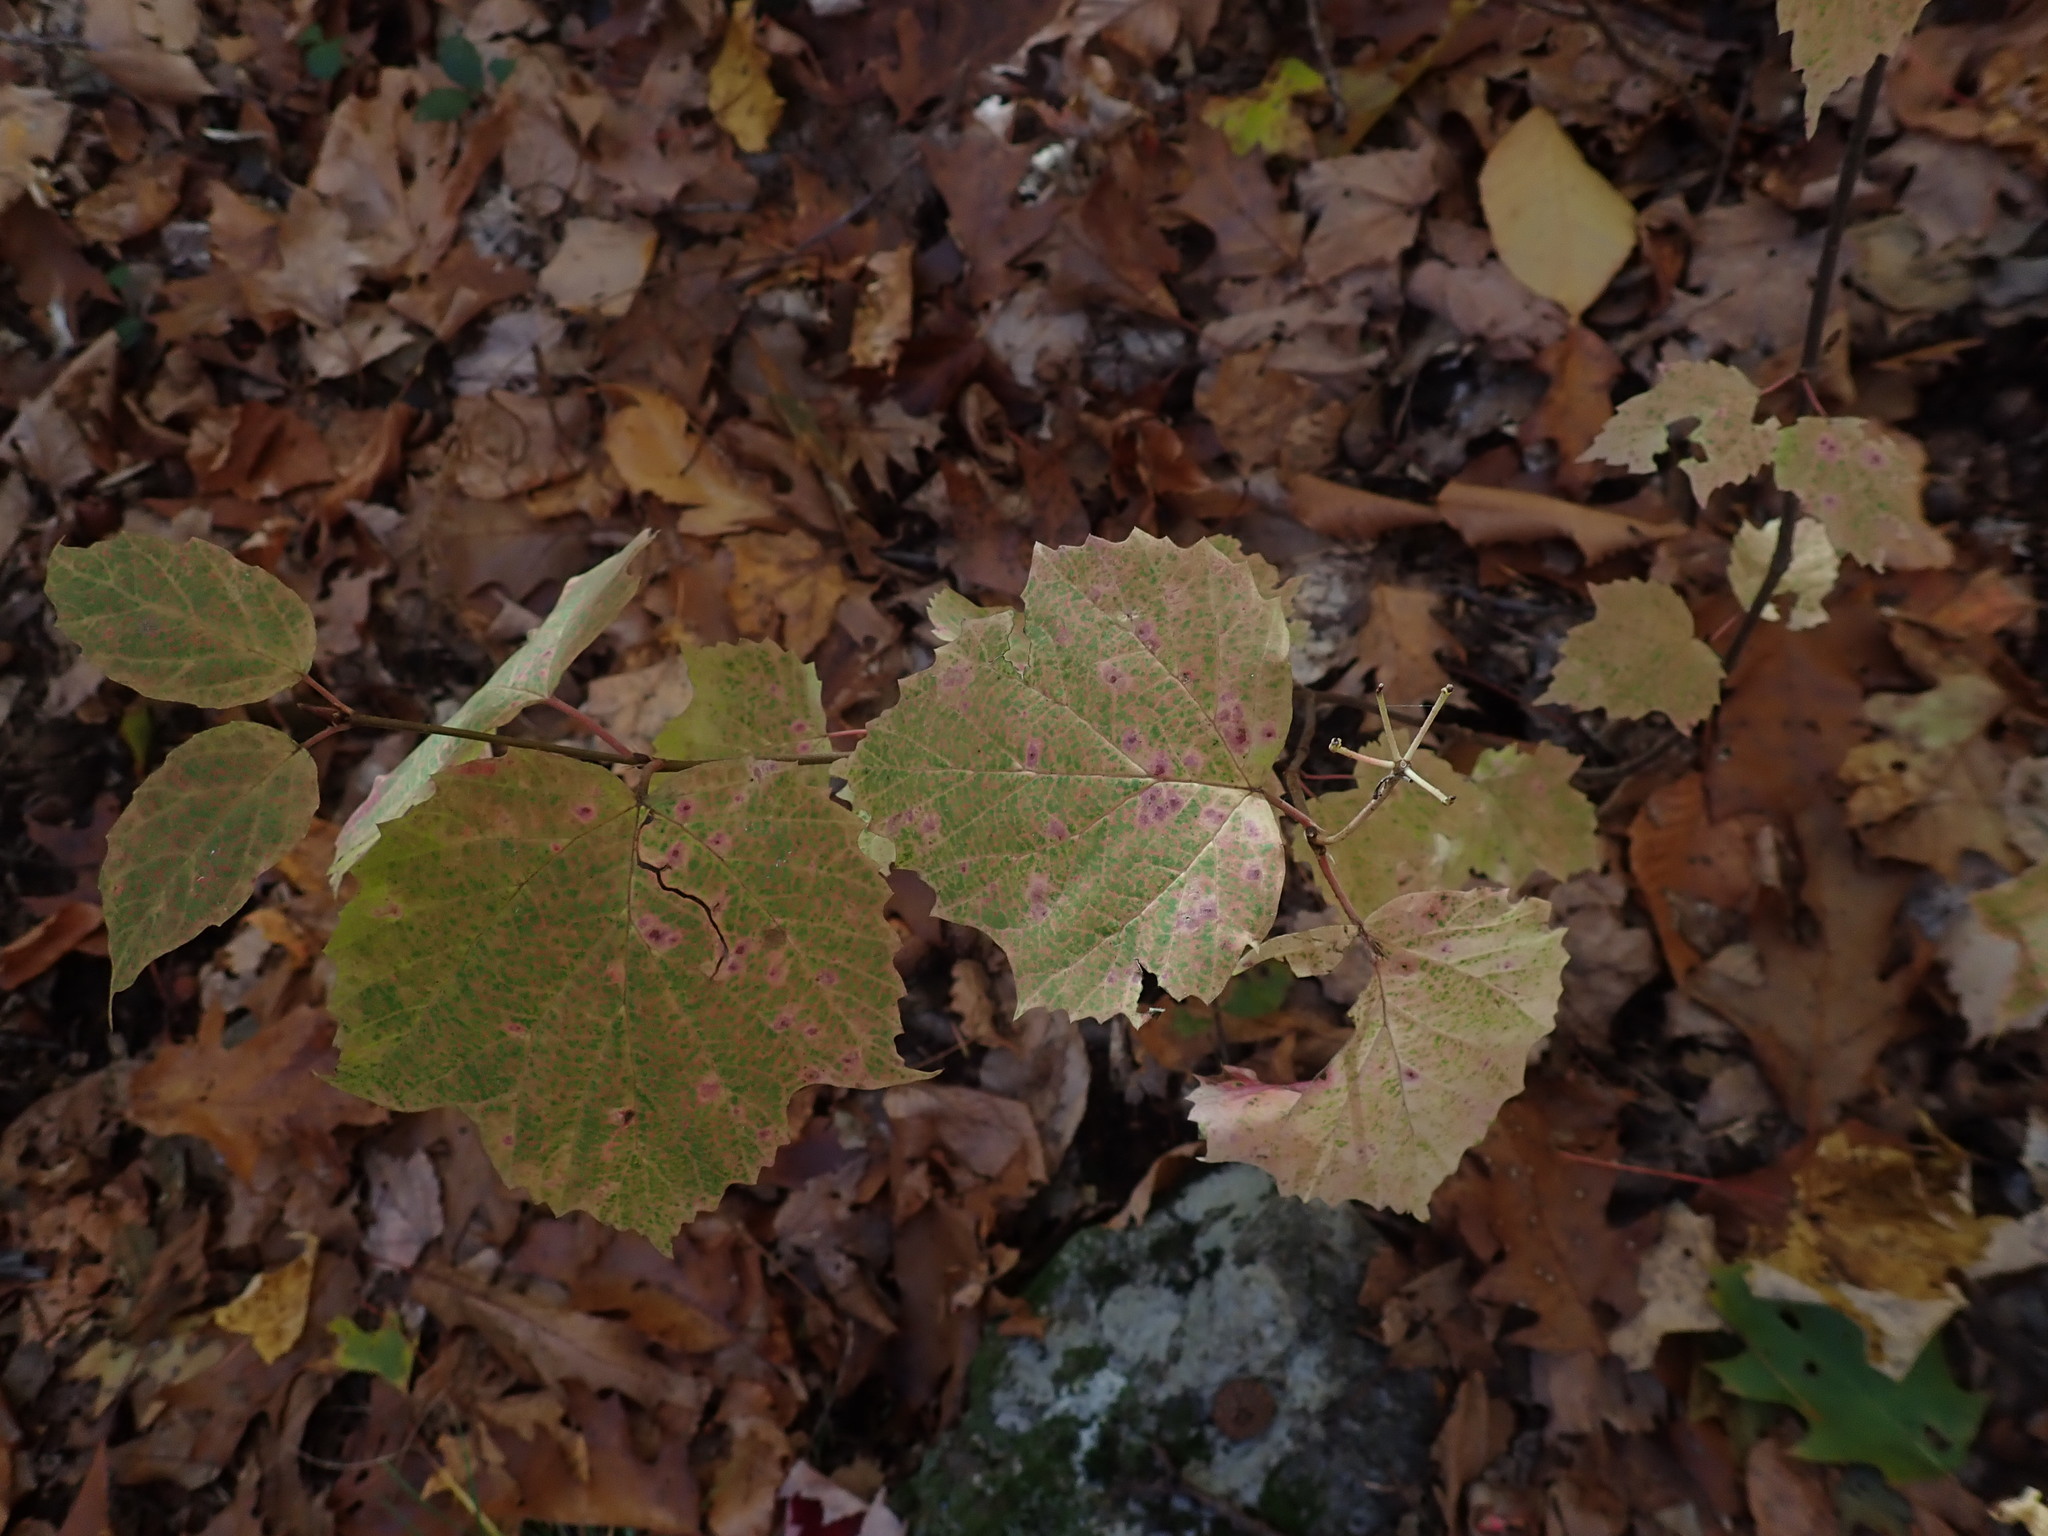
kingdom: Plantae
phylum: Tracheophyta
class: Magnoliopsida
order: Dipsacales
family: Viburnaceae
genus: Viburnum
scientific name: Viburnum acerifolium
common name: Dockmackie
